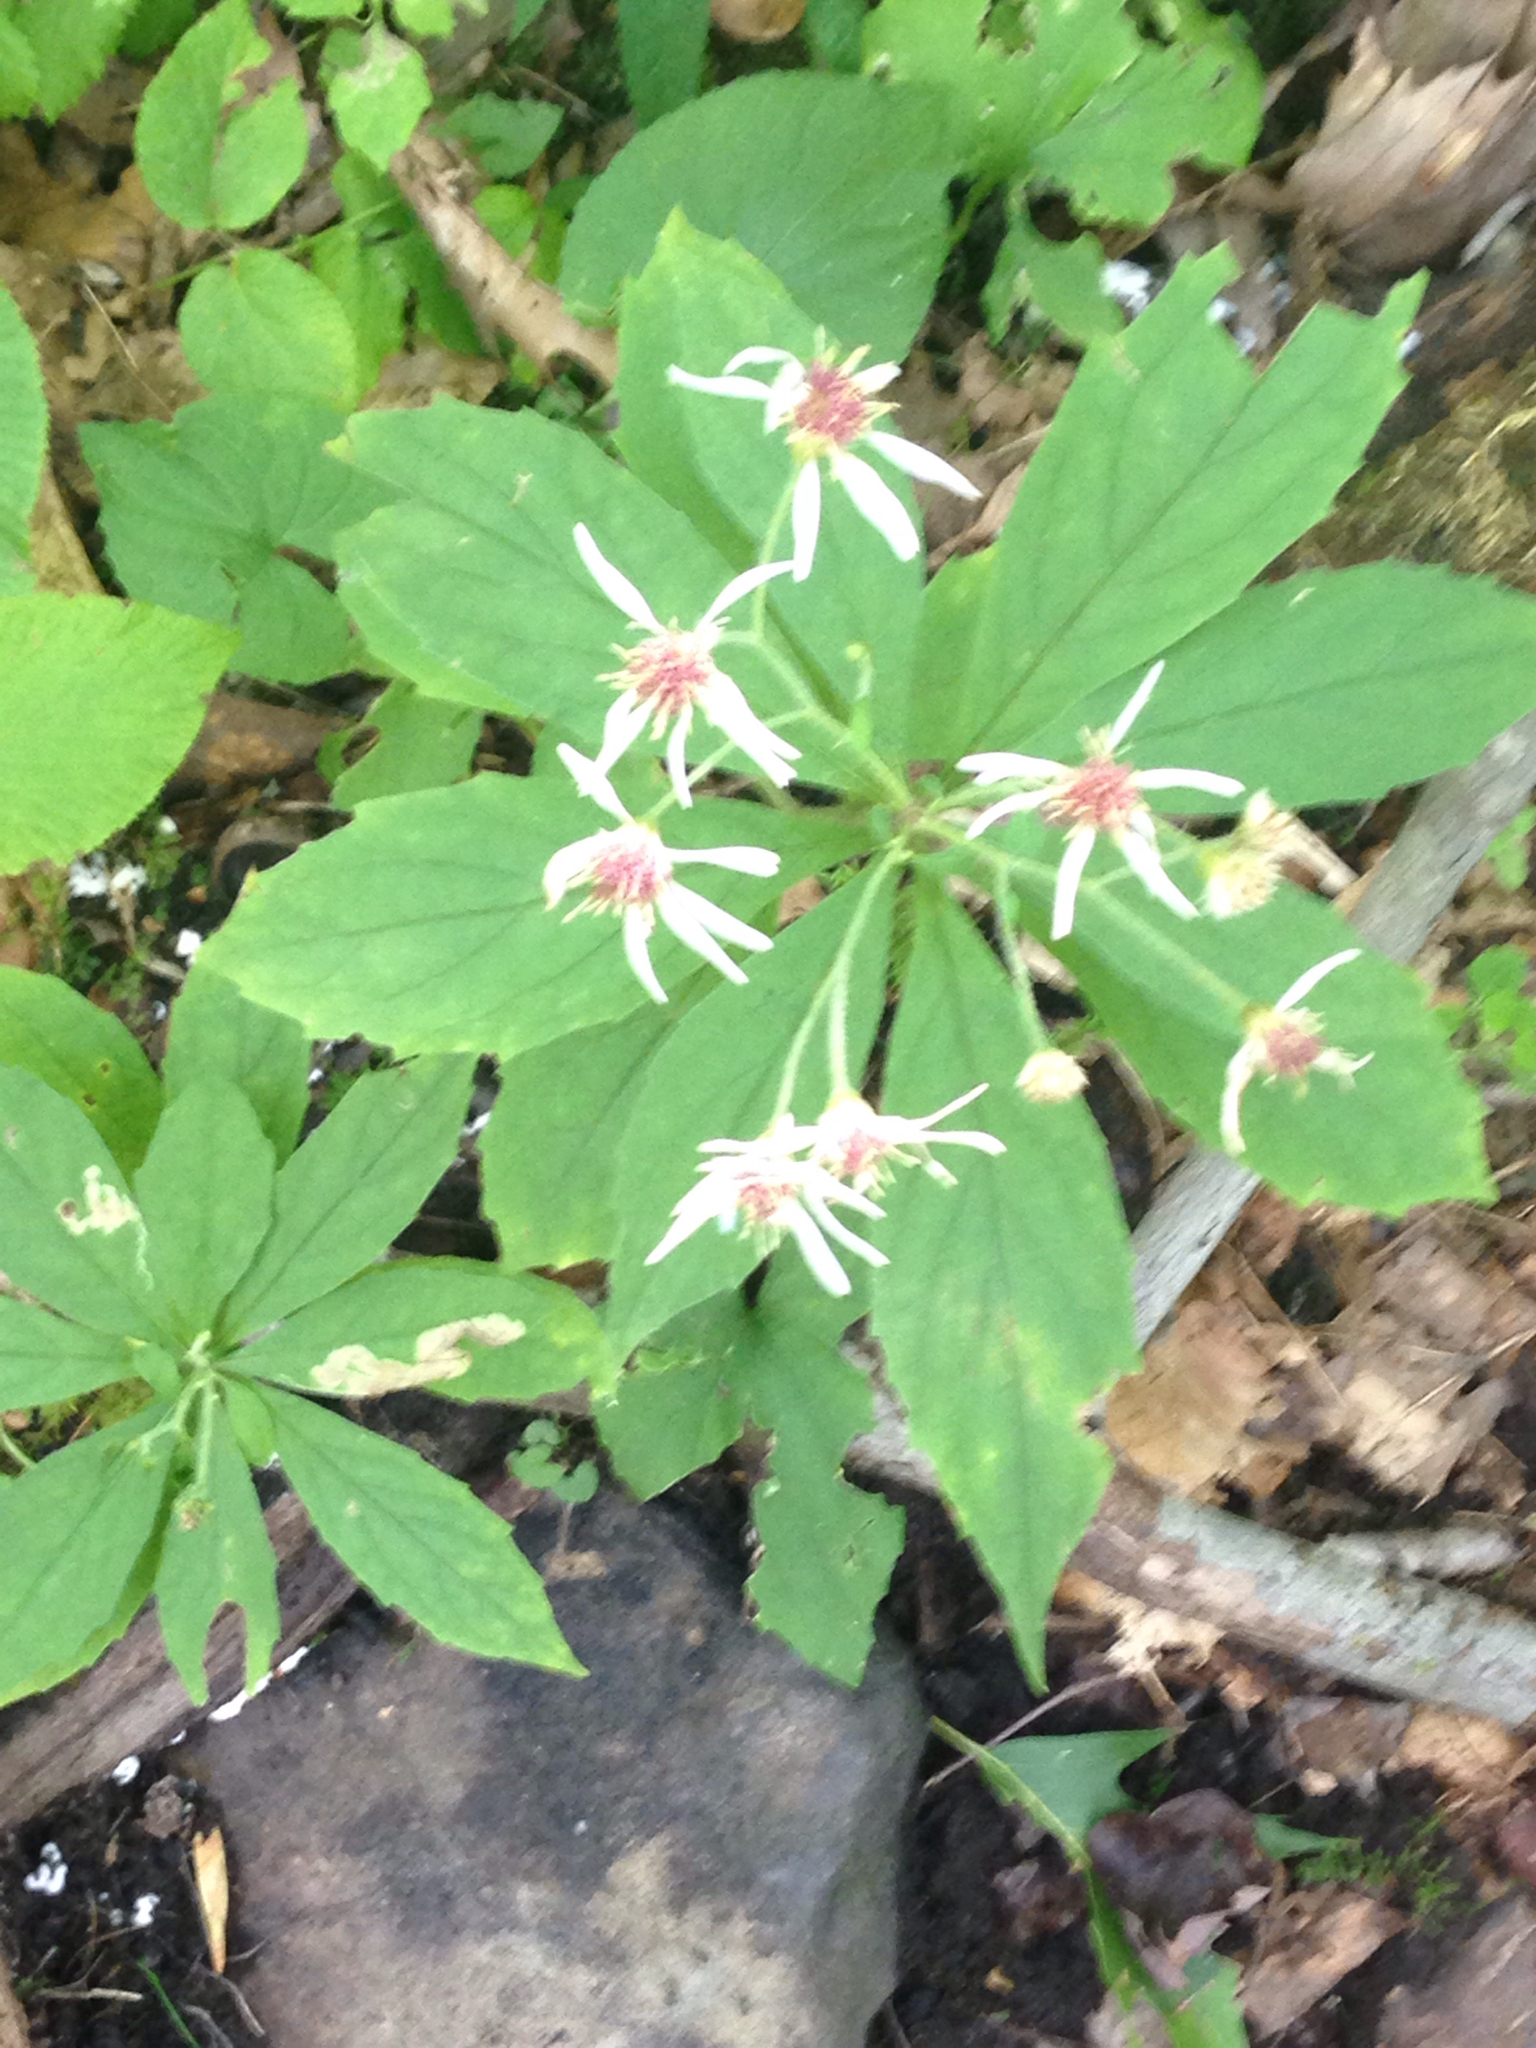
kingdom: Plantae
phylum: Tracheophyta
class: Magnoliopsida
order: Asterales
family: Asteraceae
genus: Oclemena
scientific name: Oclemena acuminata
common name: Mountain aster
